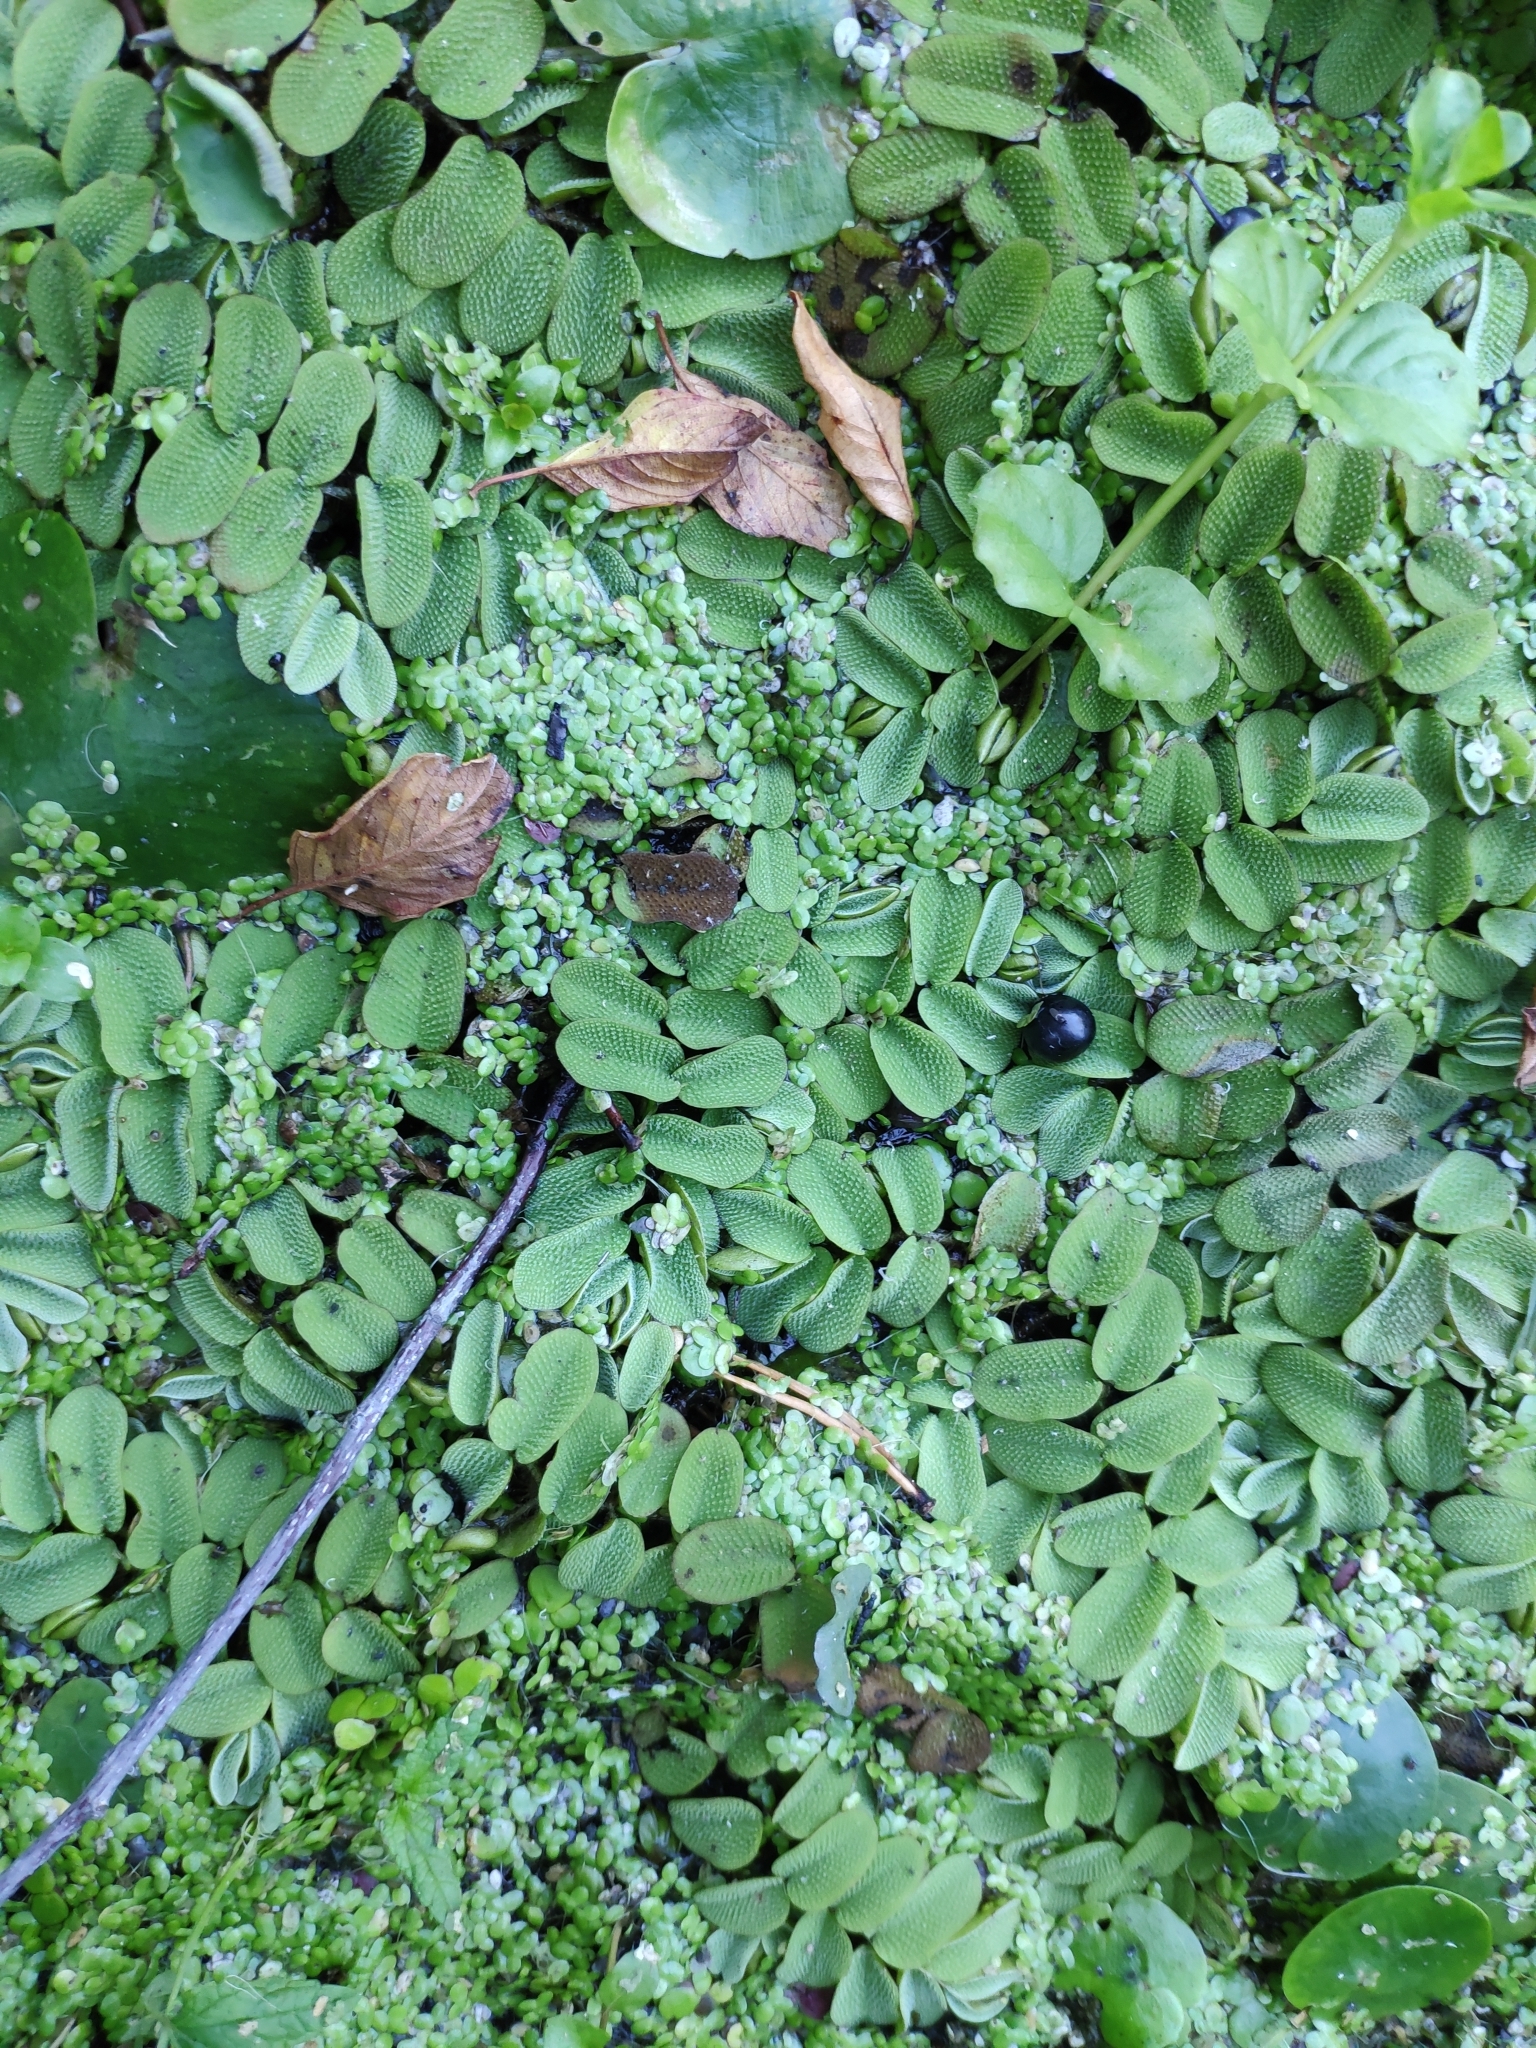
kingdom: Plantae
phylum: Tracheophyta
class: Polypodiopsida
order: Salviniales
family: Salviniaceae
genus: Salvinia
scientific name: Salvinia natans
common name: Floating fern
